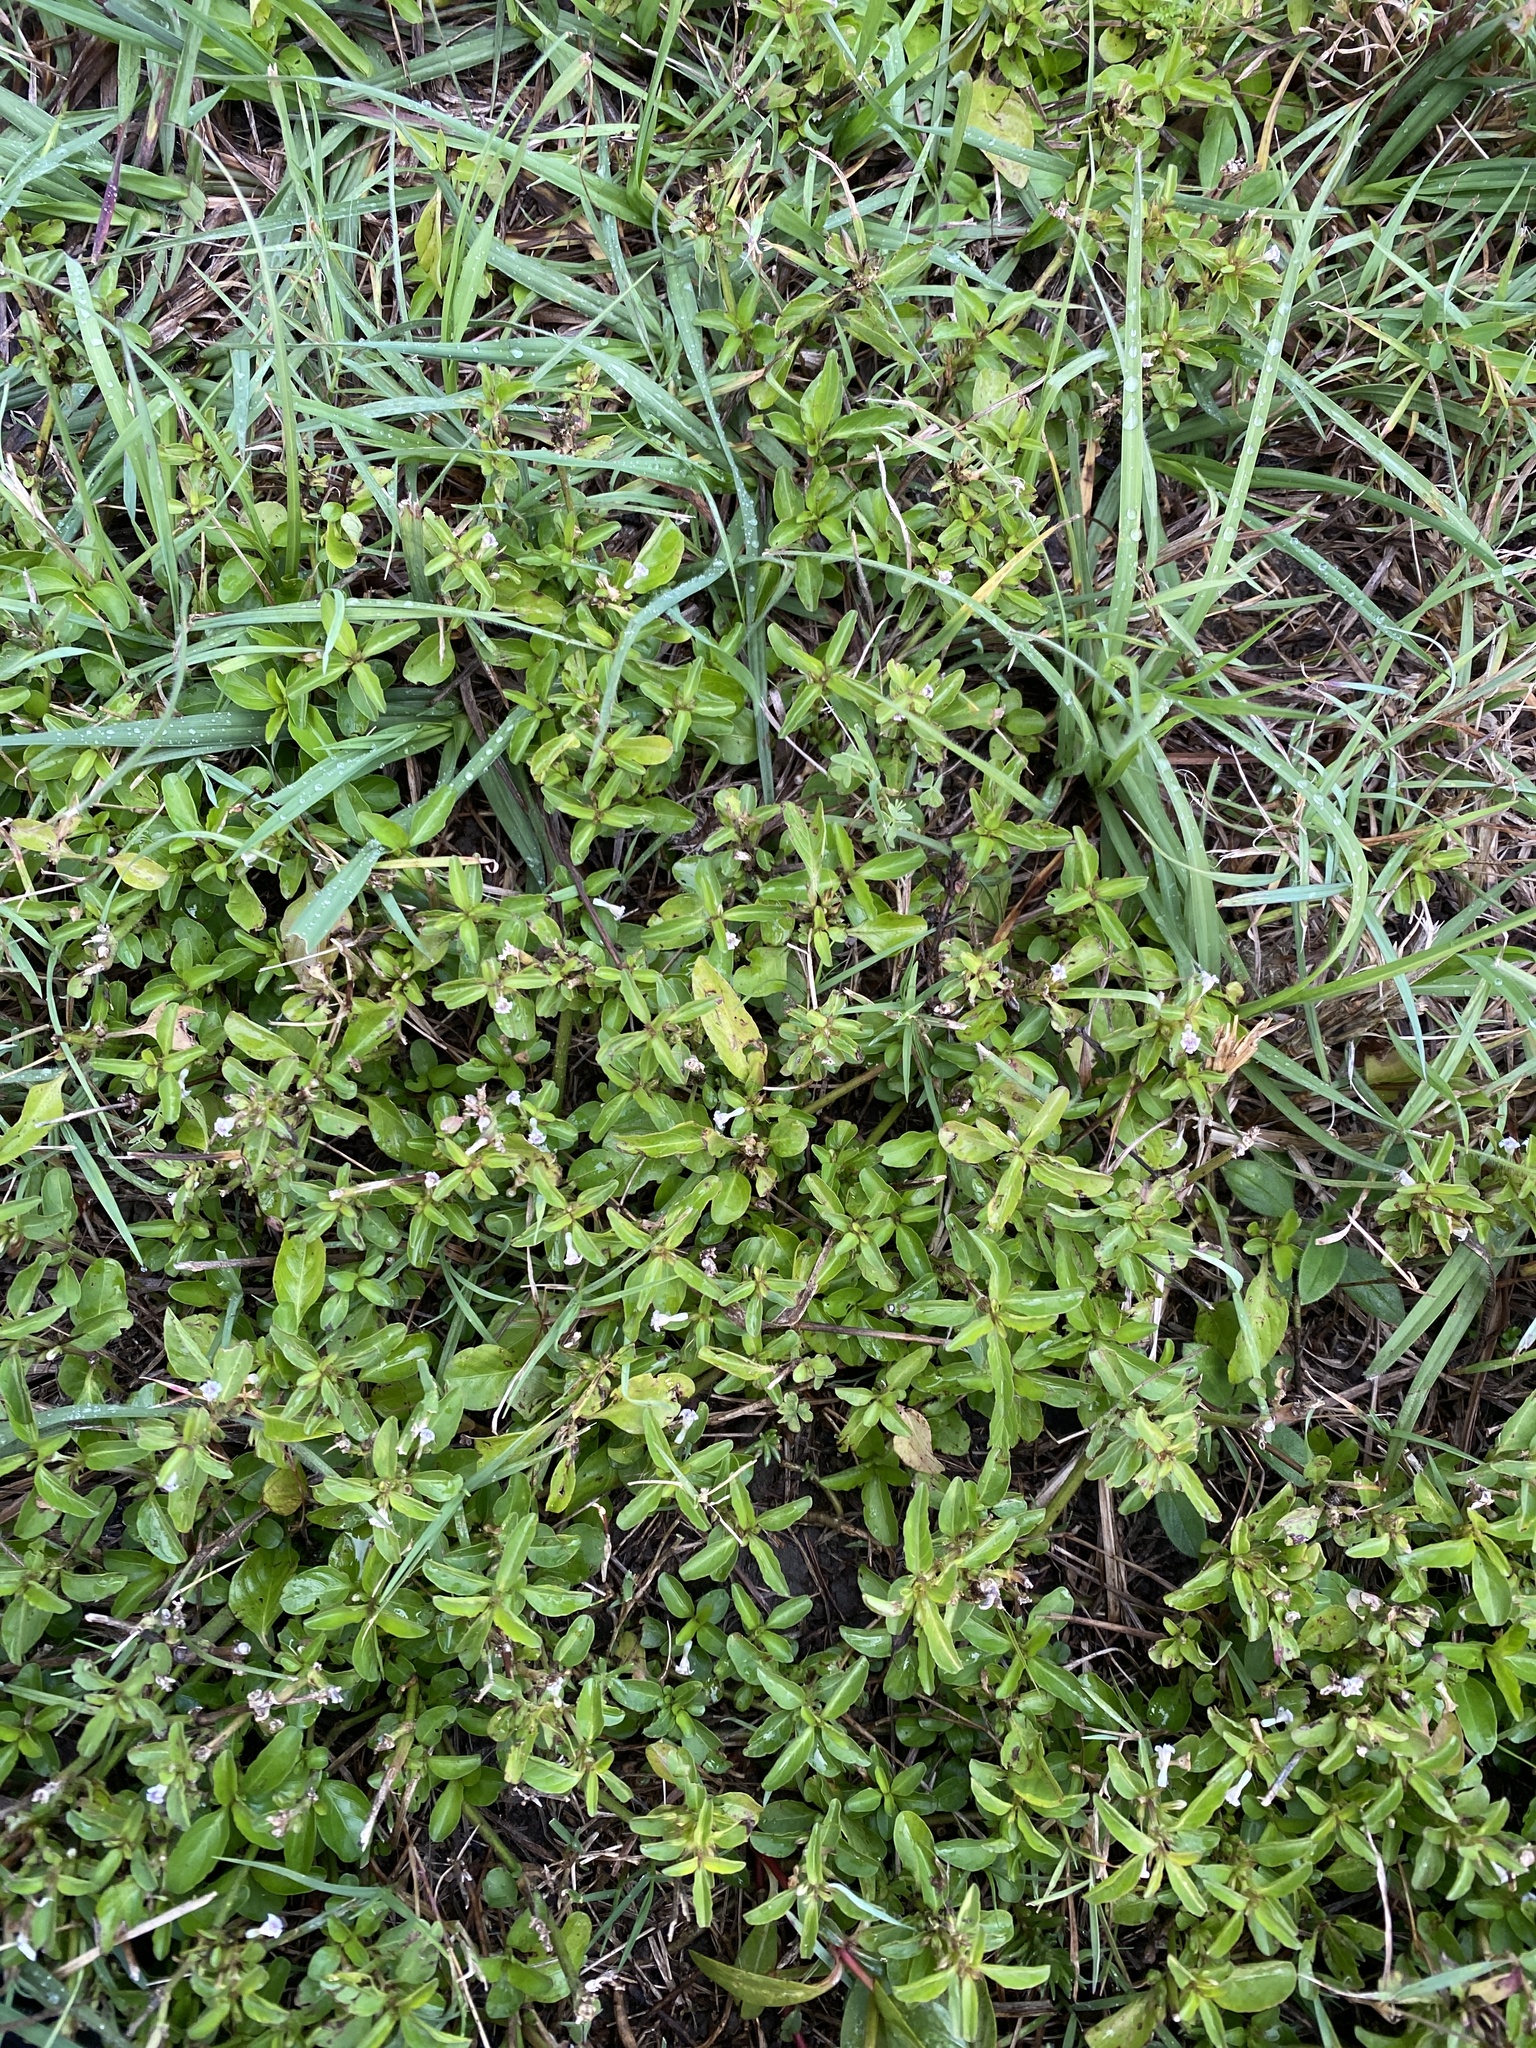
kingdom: Plantae
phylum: Tracheophyta
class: Magnoliopsida
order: Lamiales
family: Acanthaceae
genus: Hygrophila
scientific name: Hygrophila erecta
